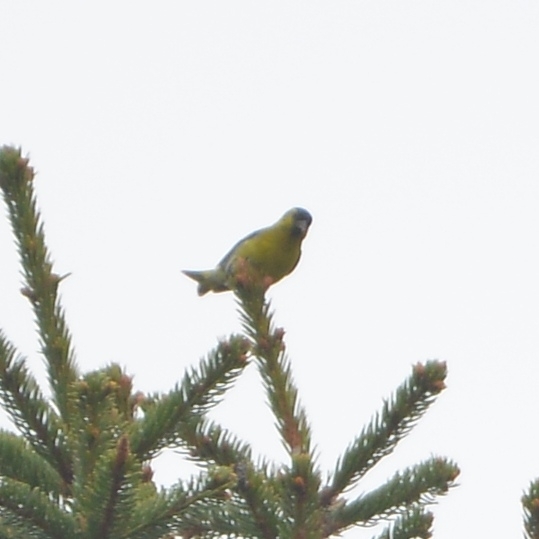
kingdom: Animalia
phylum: Chordata
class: Aves
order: Passeriformes
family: Fringillidae
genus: Spinus
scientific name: Spinus spinus
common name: Eurasian siskin
